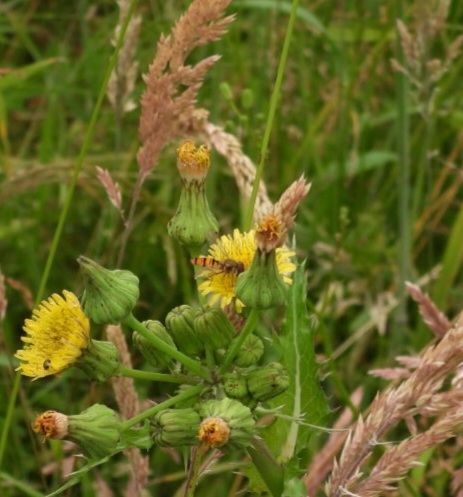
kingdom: Animalia
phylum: Arthropoda
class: Insecta
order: Diptera
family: Syrphidae
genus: Episyrphus
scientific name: Episyrphus balteatus
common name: Marmalade hoverfly
